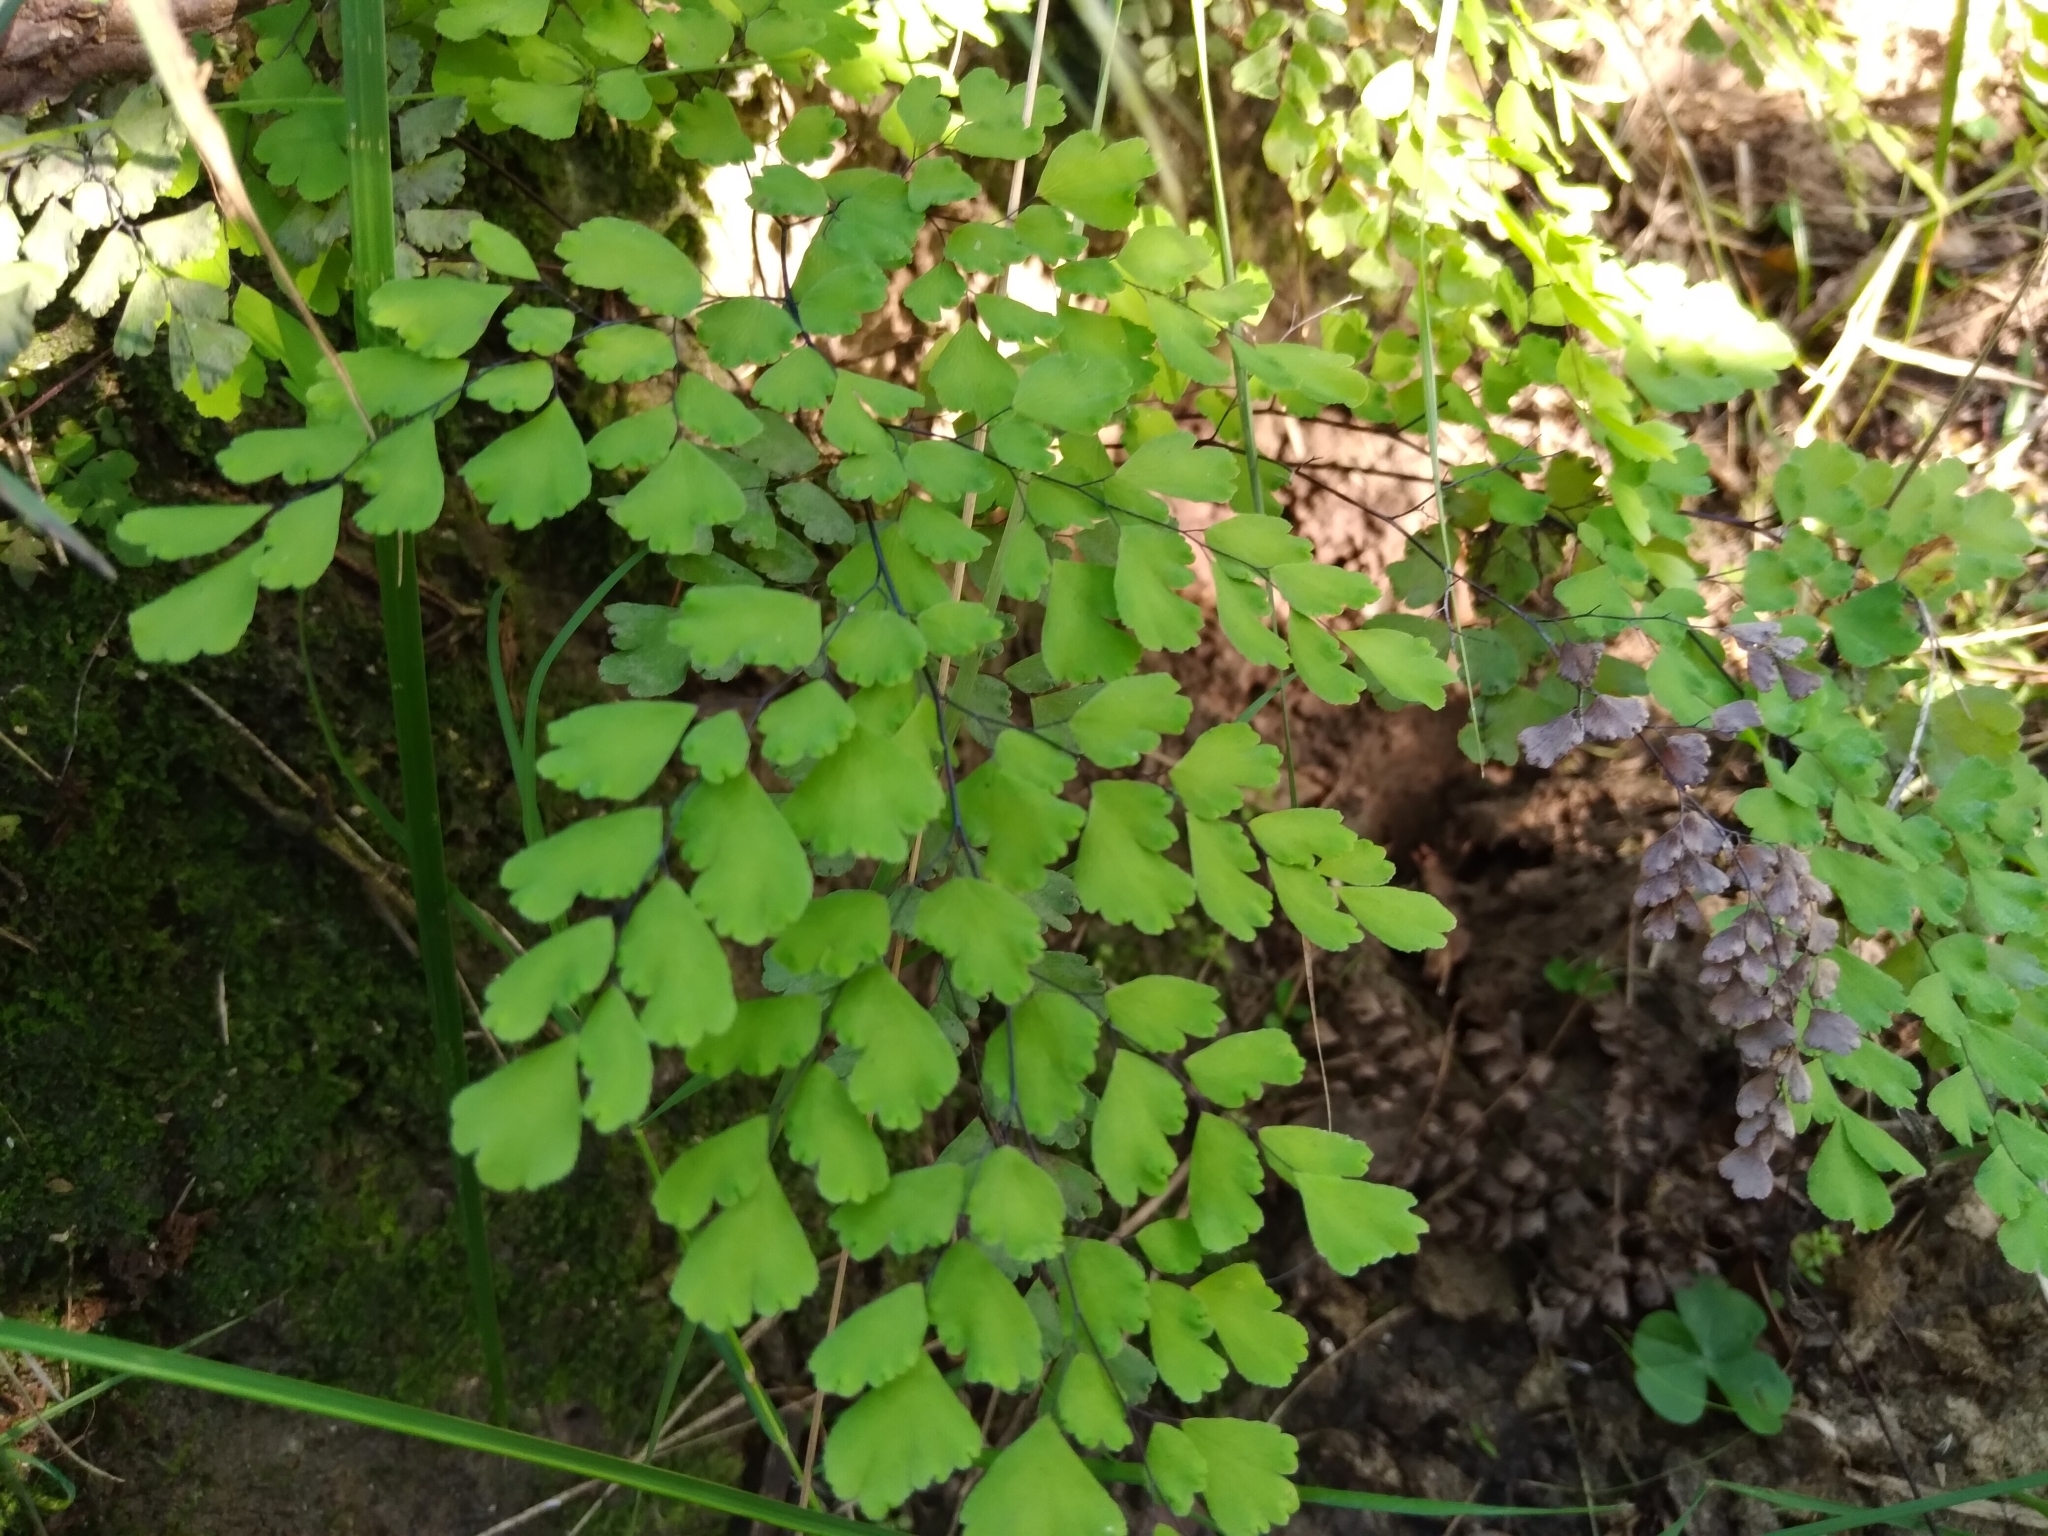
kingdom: Plantae
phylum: Tracheophyta
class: Polypodiopsida
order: Polypodiales
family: Pteridaceae
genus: Adiantum
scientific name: Adiantum raddianum
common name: Delta maidenhair fern
